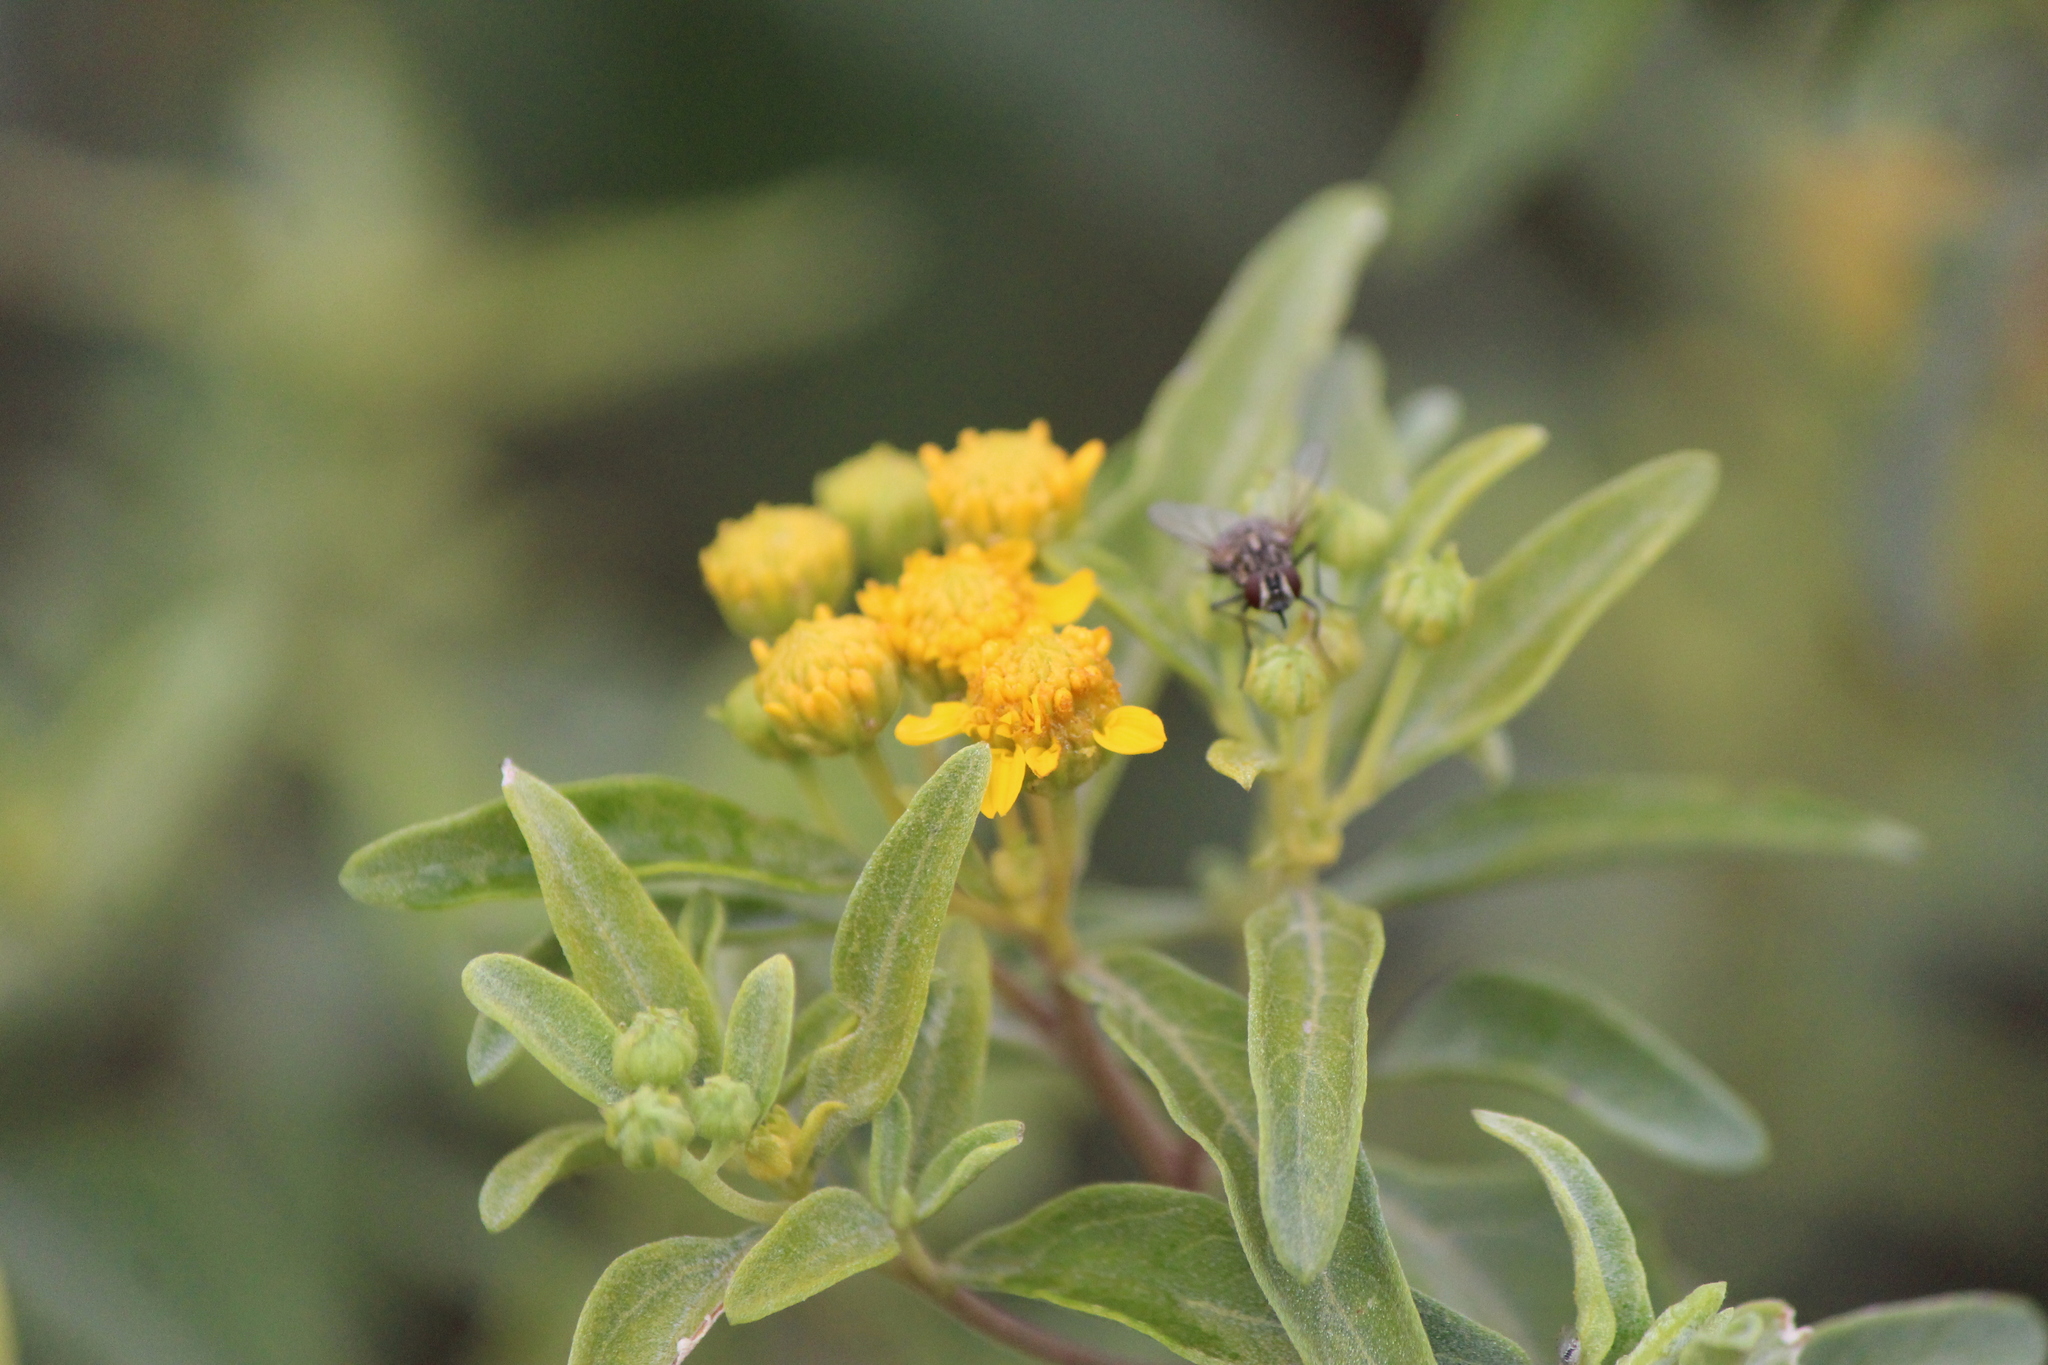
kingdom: Plantae
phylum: Tracheophyta
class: Magnoliopsida
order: Asterales
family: Asteraceae
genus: Zaluzania
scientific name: Zaluzania augusta
